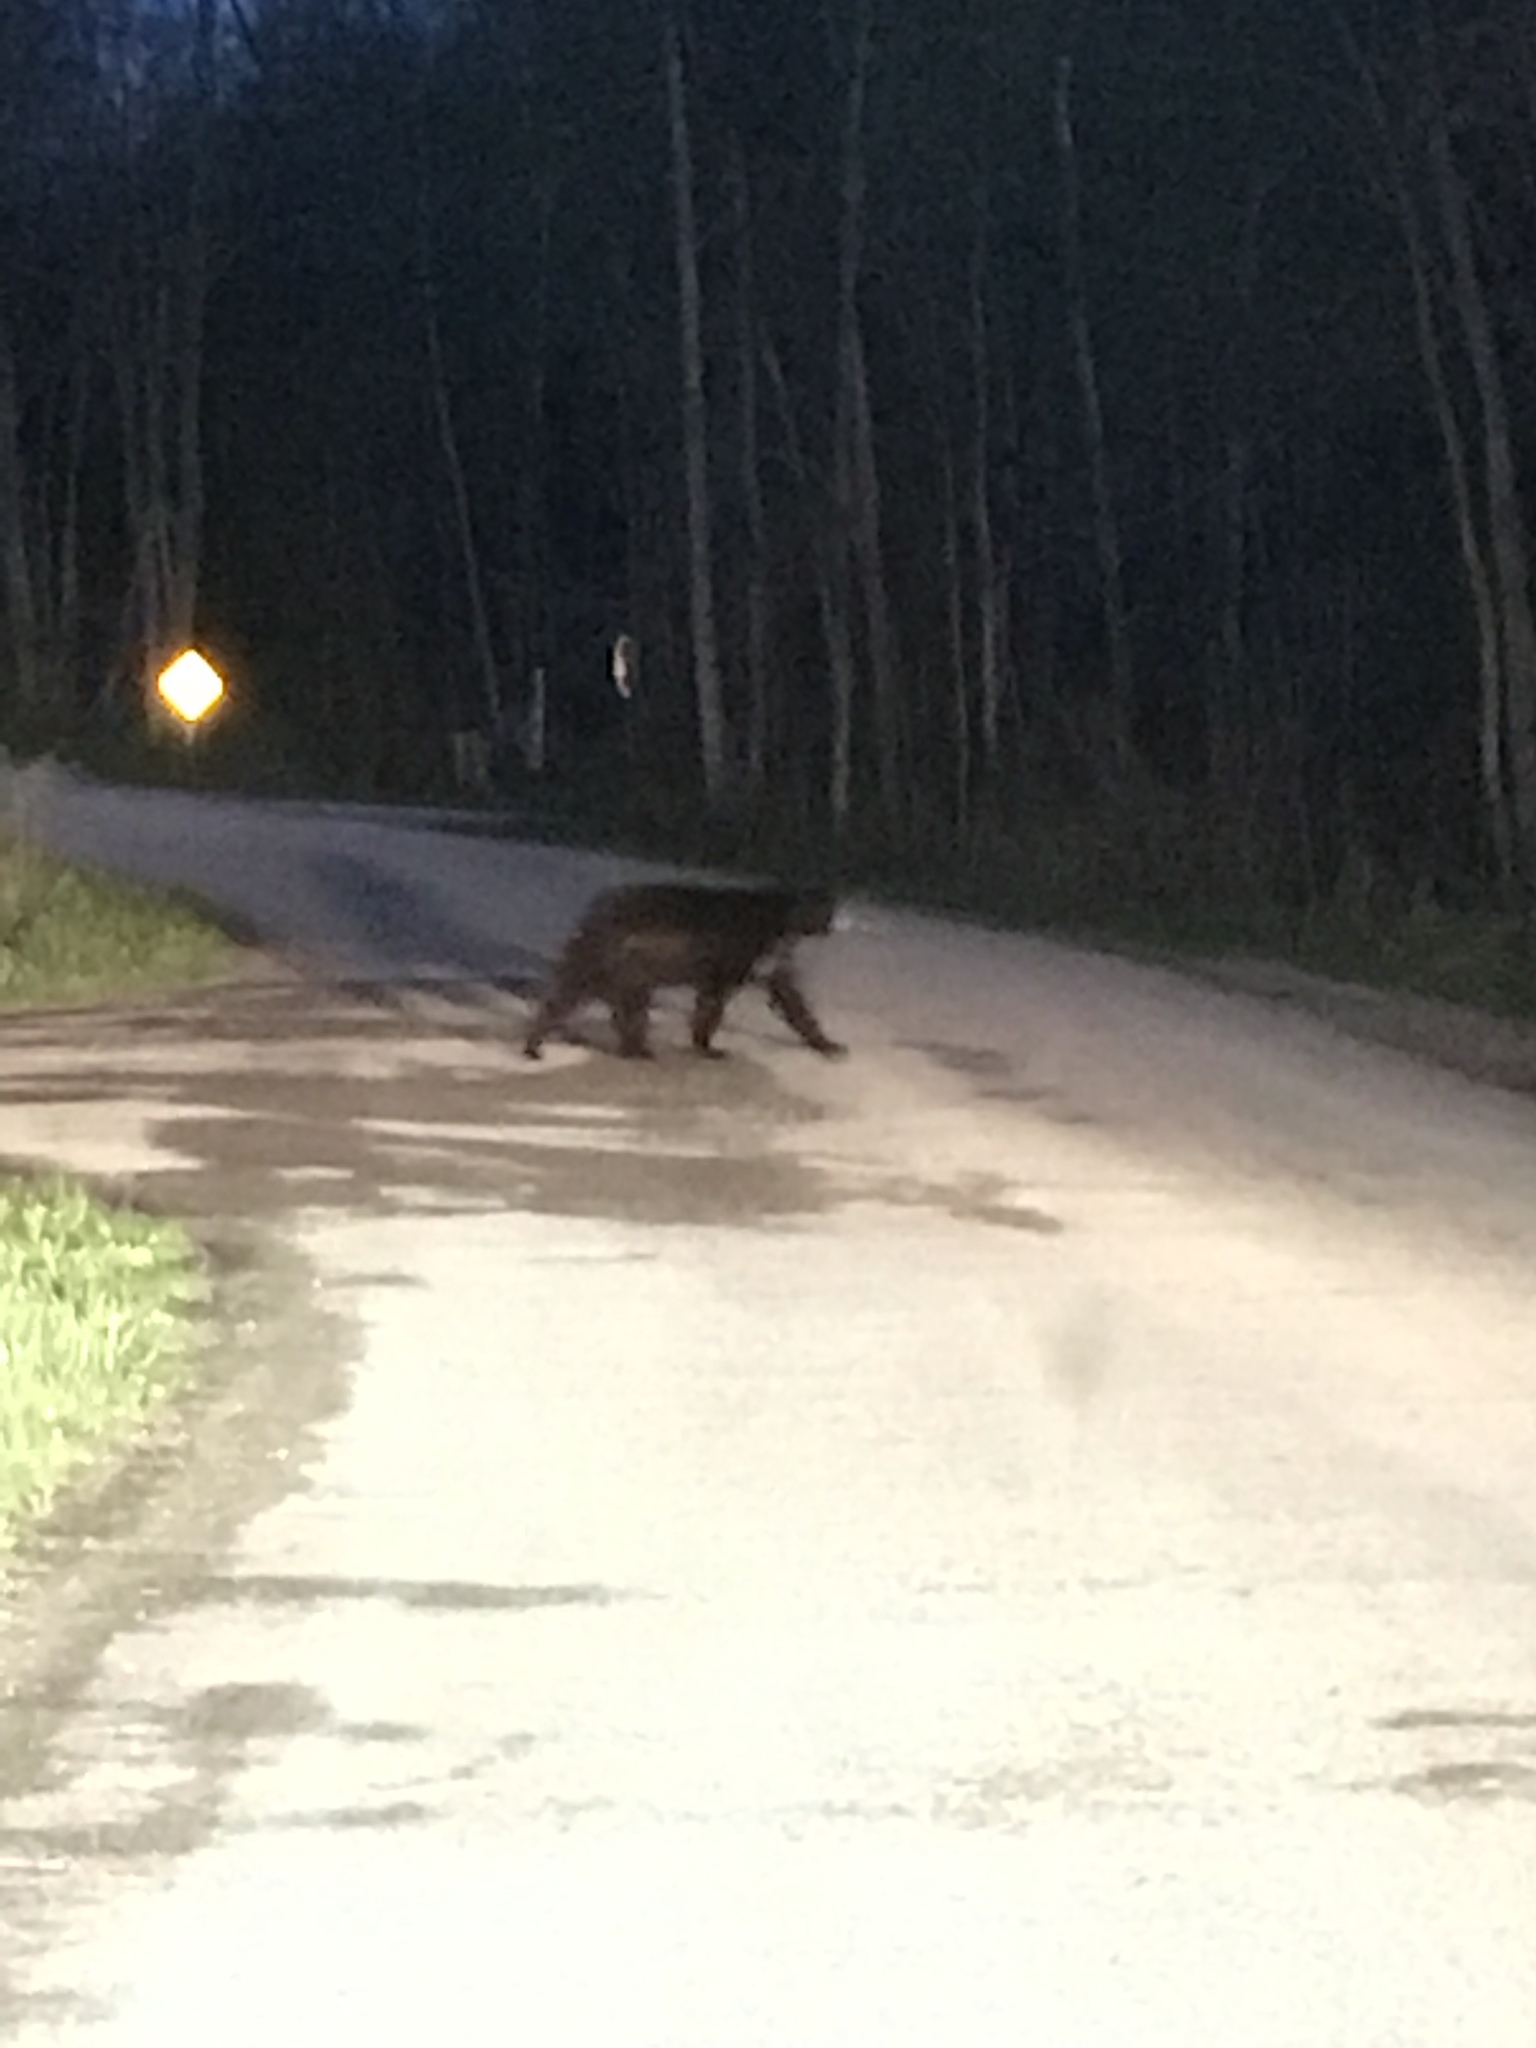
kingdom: Animalia
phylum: Chordata
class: Mammalia
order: Carnivora
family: Ursidae
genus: Ursus
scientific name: Ursus americanus
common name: American black bear
